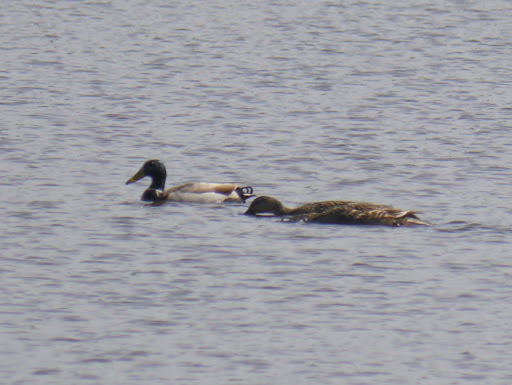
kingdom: Animalia
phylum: Chordata
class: Aves
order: Anseriformes
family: Anatidae
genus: Anas
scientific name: Anas platyrhynchos
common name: Mallard
